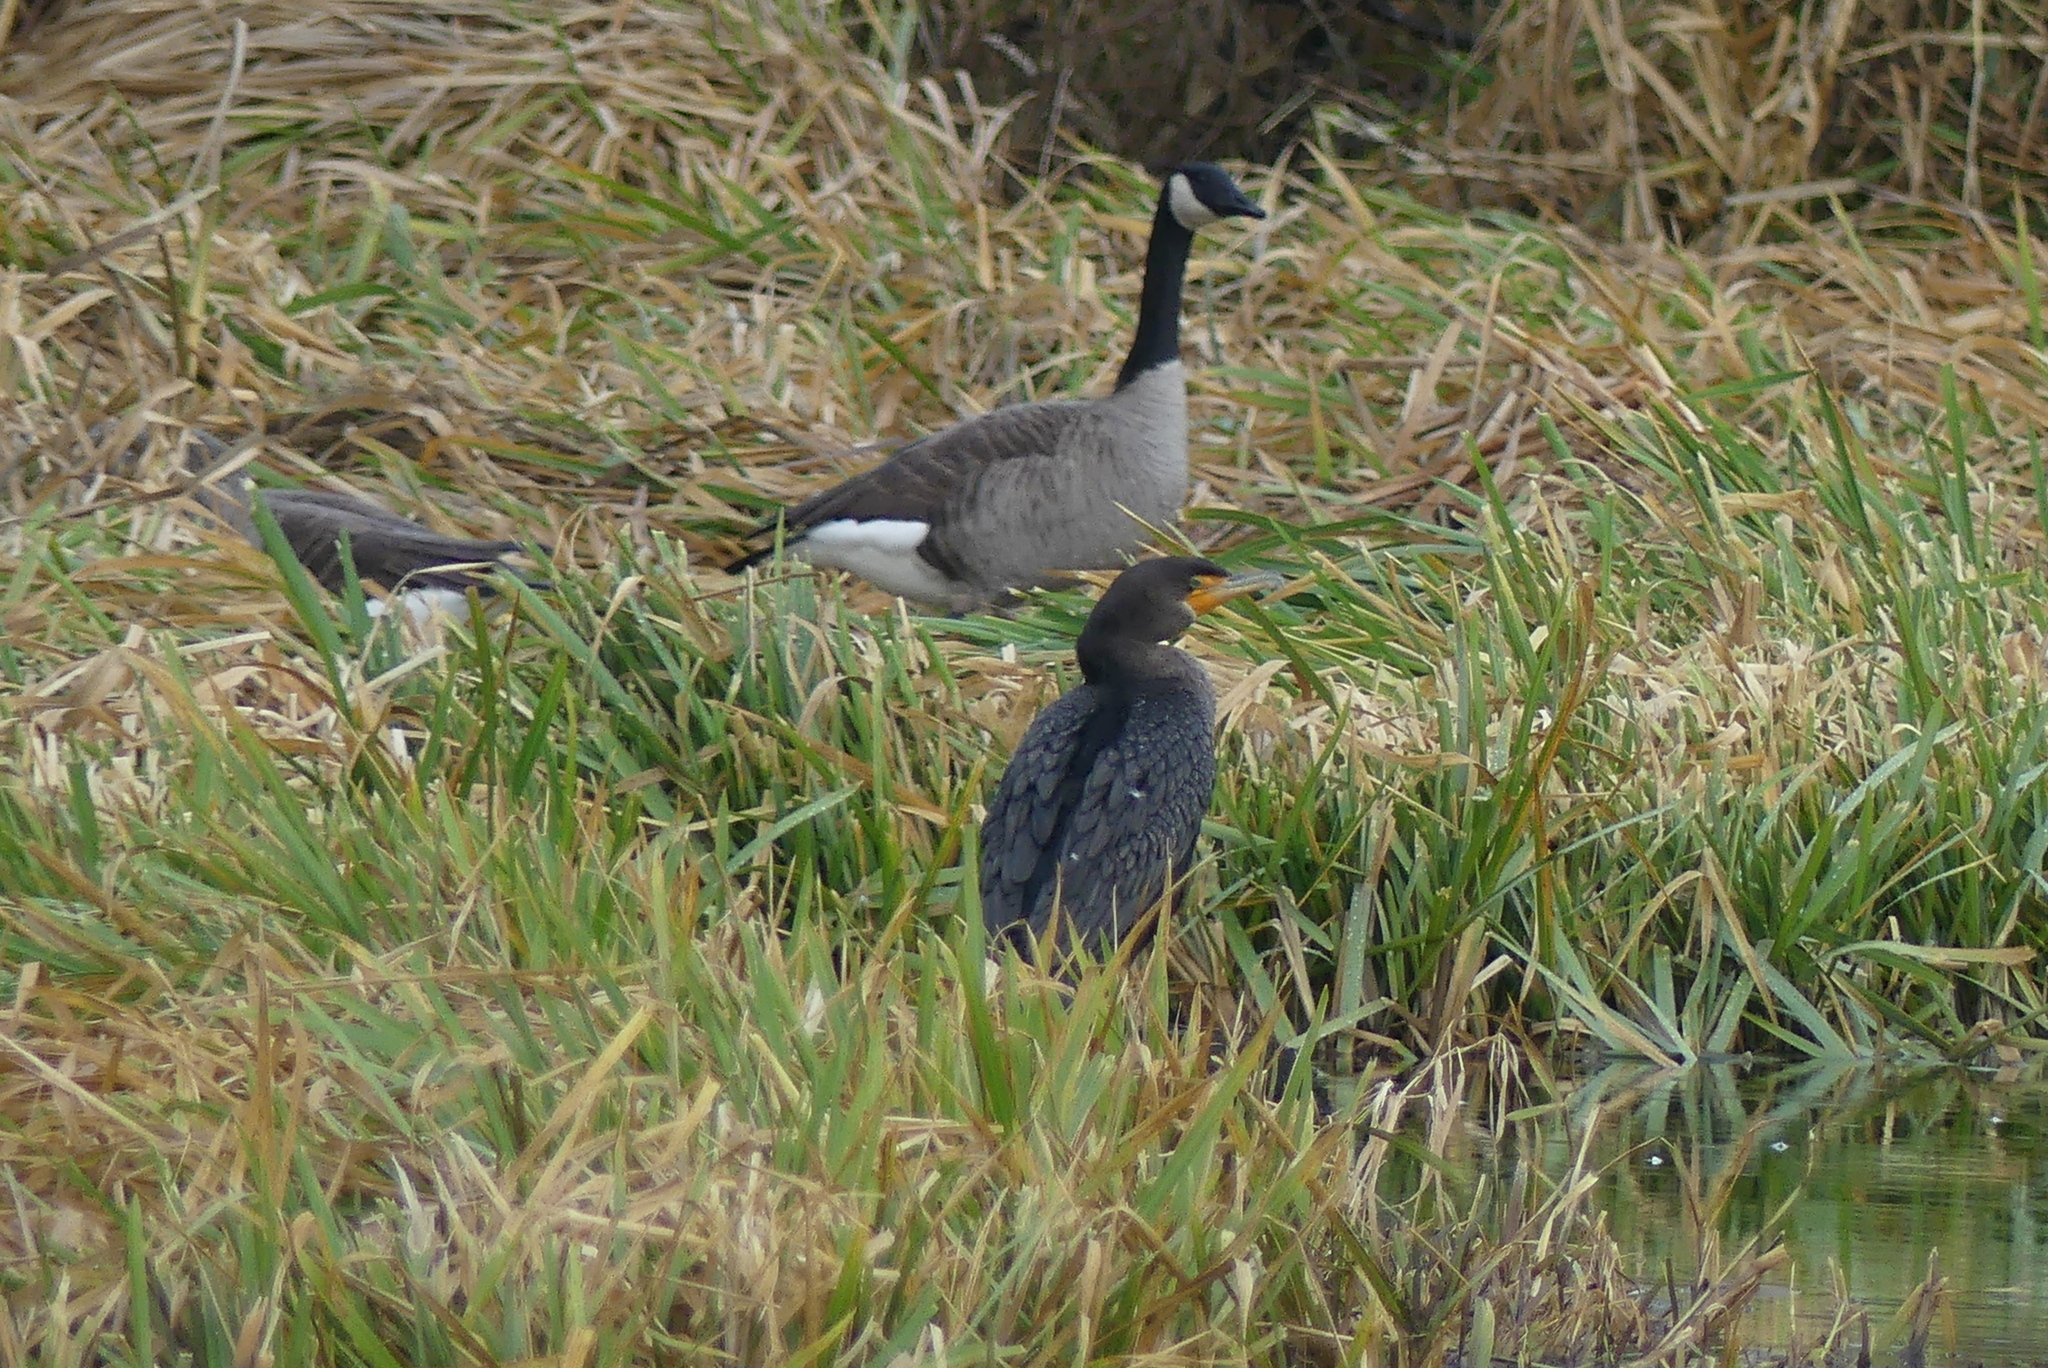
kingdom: Animalia
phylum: Chordata
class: Aves
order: Anseriformes
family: Anatidae
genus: Branta
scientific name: Branta canadensis
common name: Canada goose
